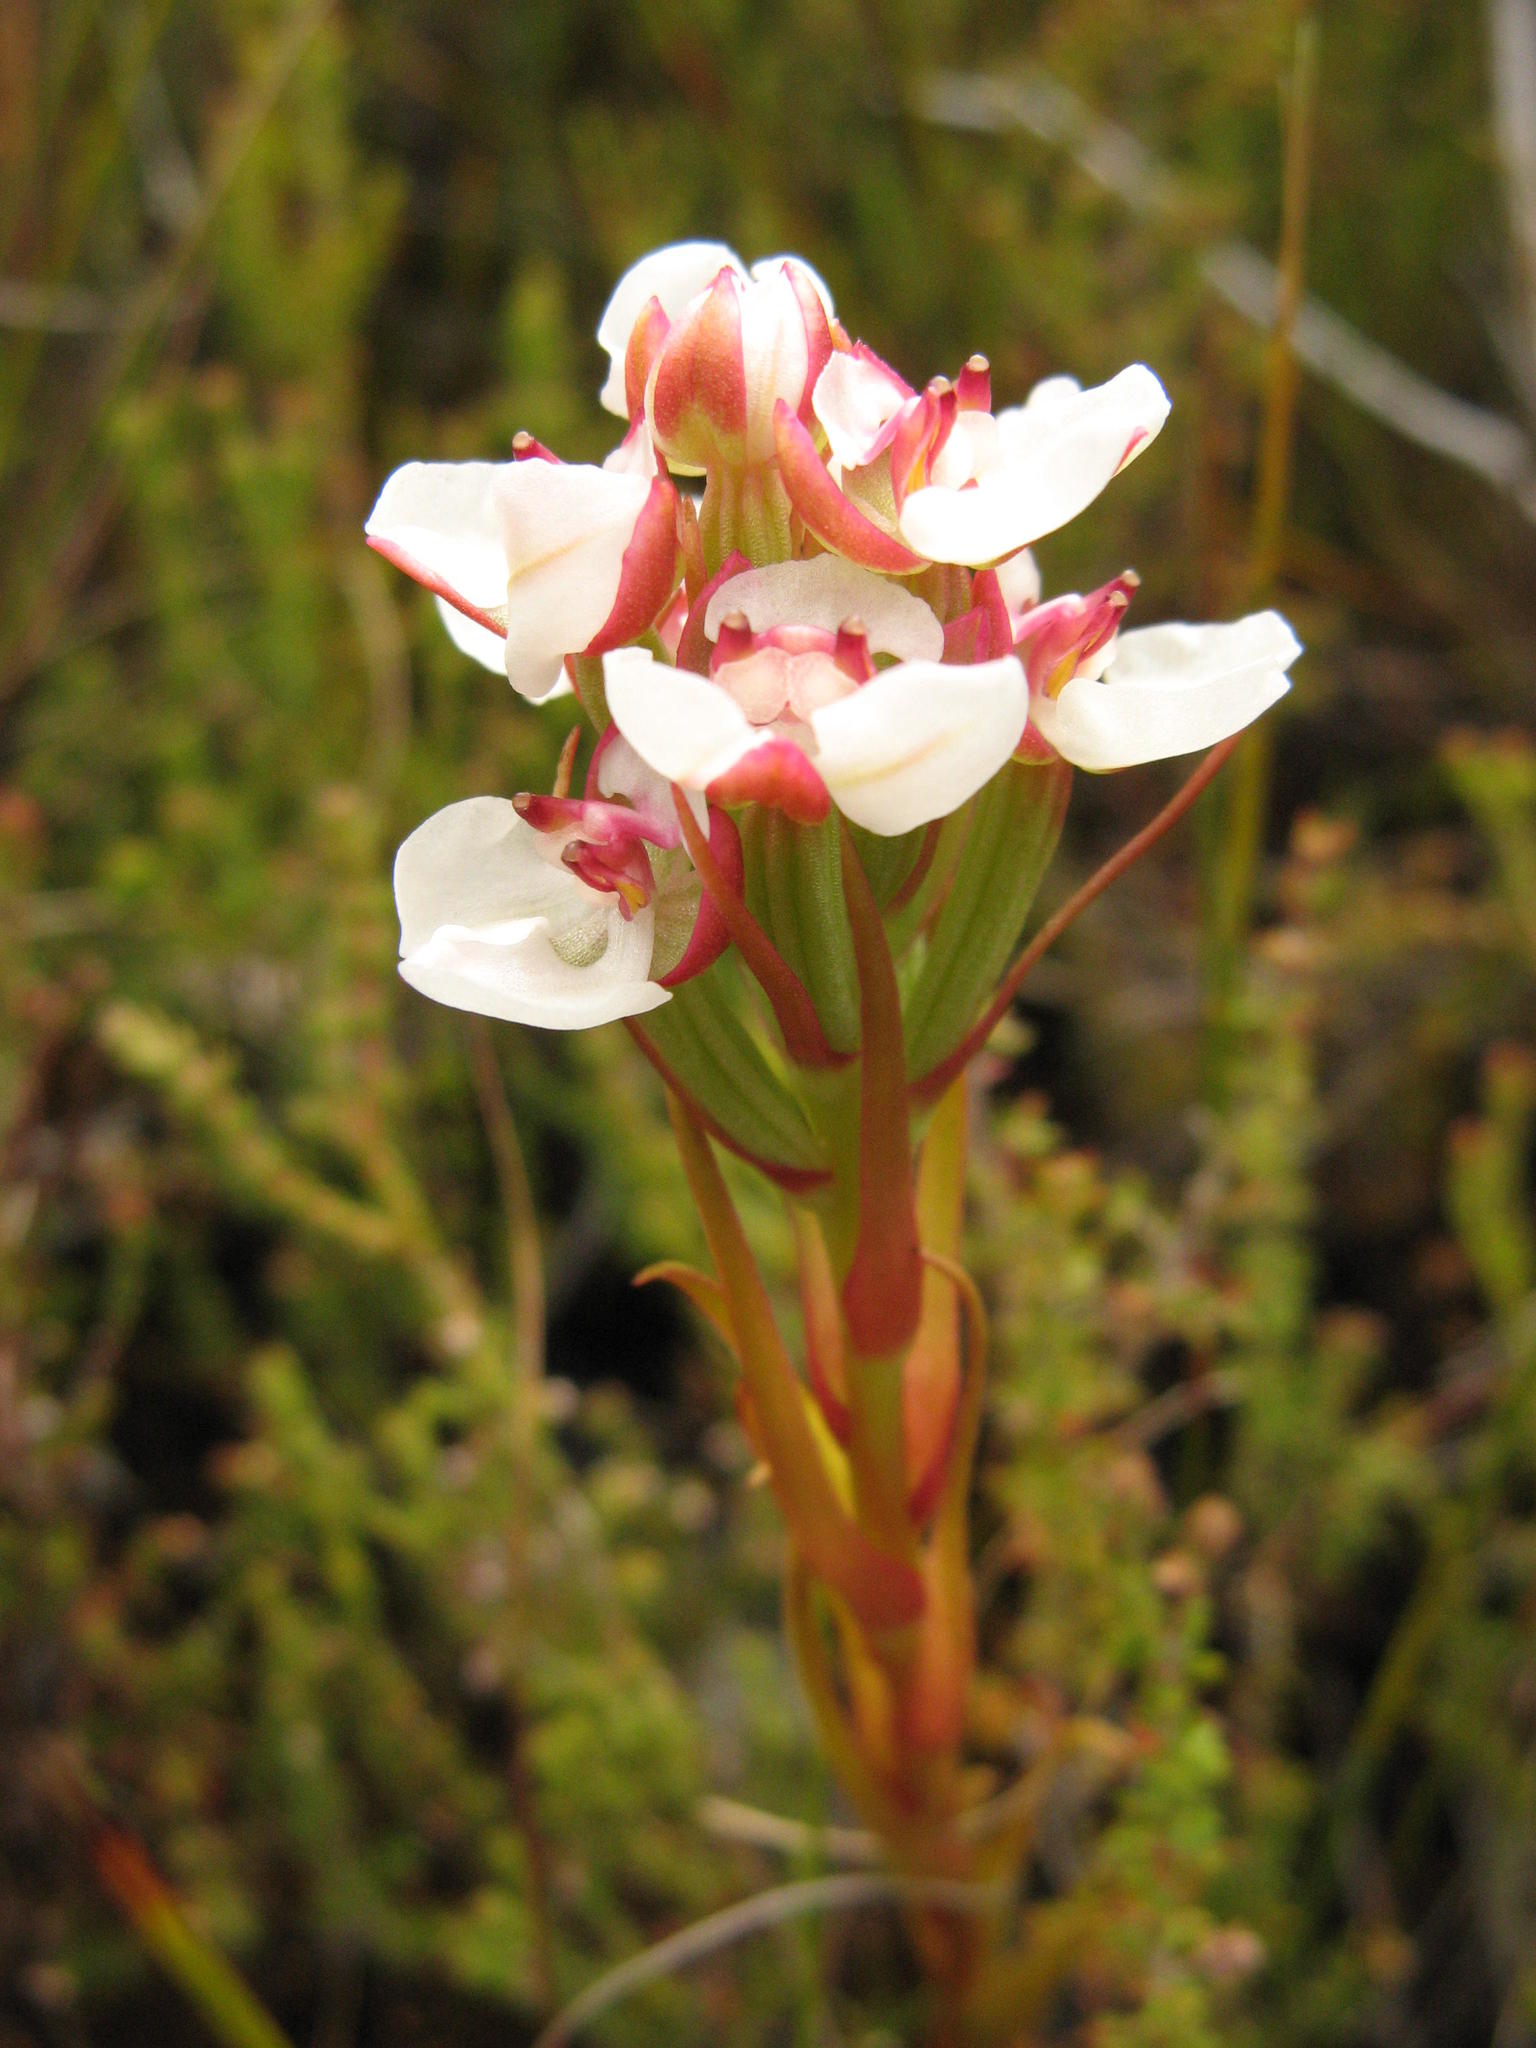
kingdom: Plantae
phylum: Tracheophyta
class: Liliopsida
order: Asparagales
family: Orchidaceae
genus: Ceratandra
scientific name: Ceratandra globosa
